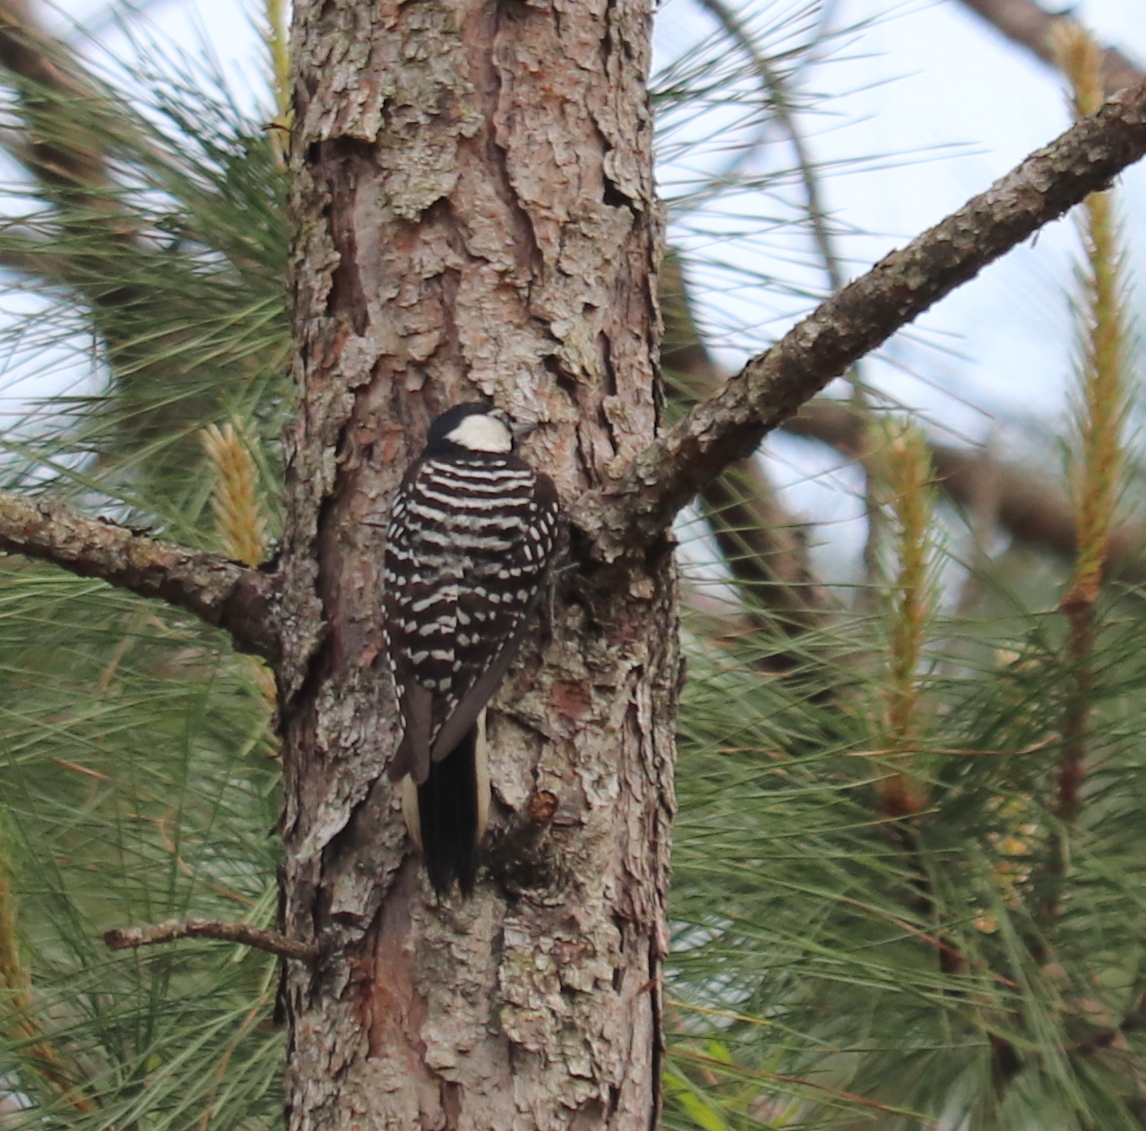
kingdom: Animalia
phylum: Chordata
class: Aves
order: Piciformes
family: Picidae
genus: Leuconotopicus
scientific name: Leuconotopicus borealis
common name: Red-cockaded woodpecker
